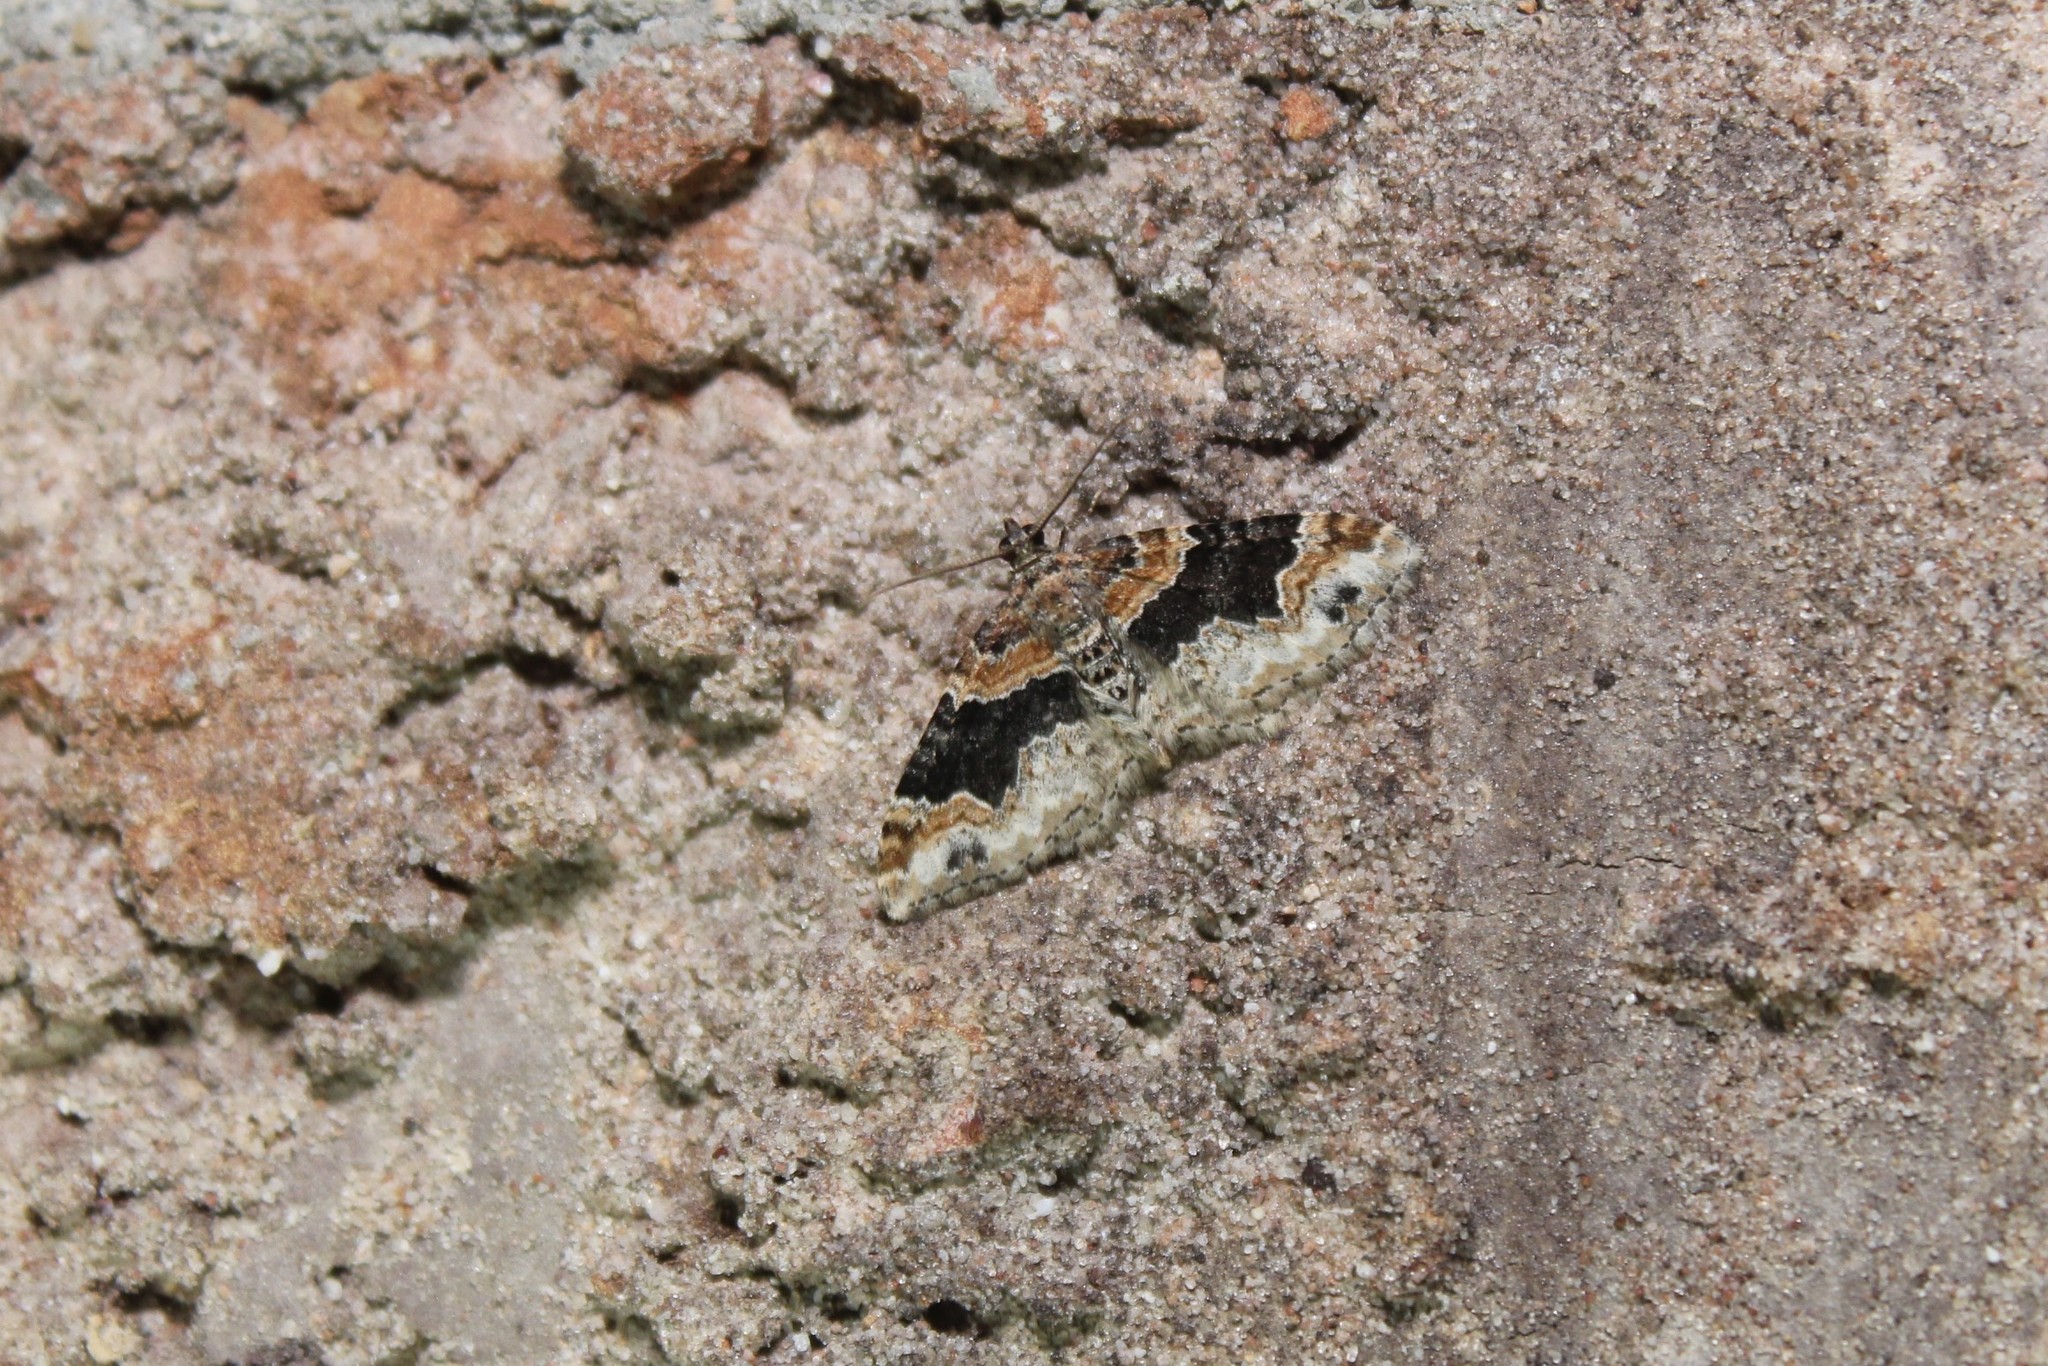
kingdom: Animalia
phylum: Arthropoda
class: Insecta
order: Lepidoptera
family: Geometridae
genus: Xanthorhoe
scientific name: Xanthorhoe ferrugata
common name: Dark-barred twin-spot carpet
